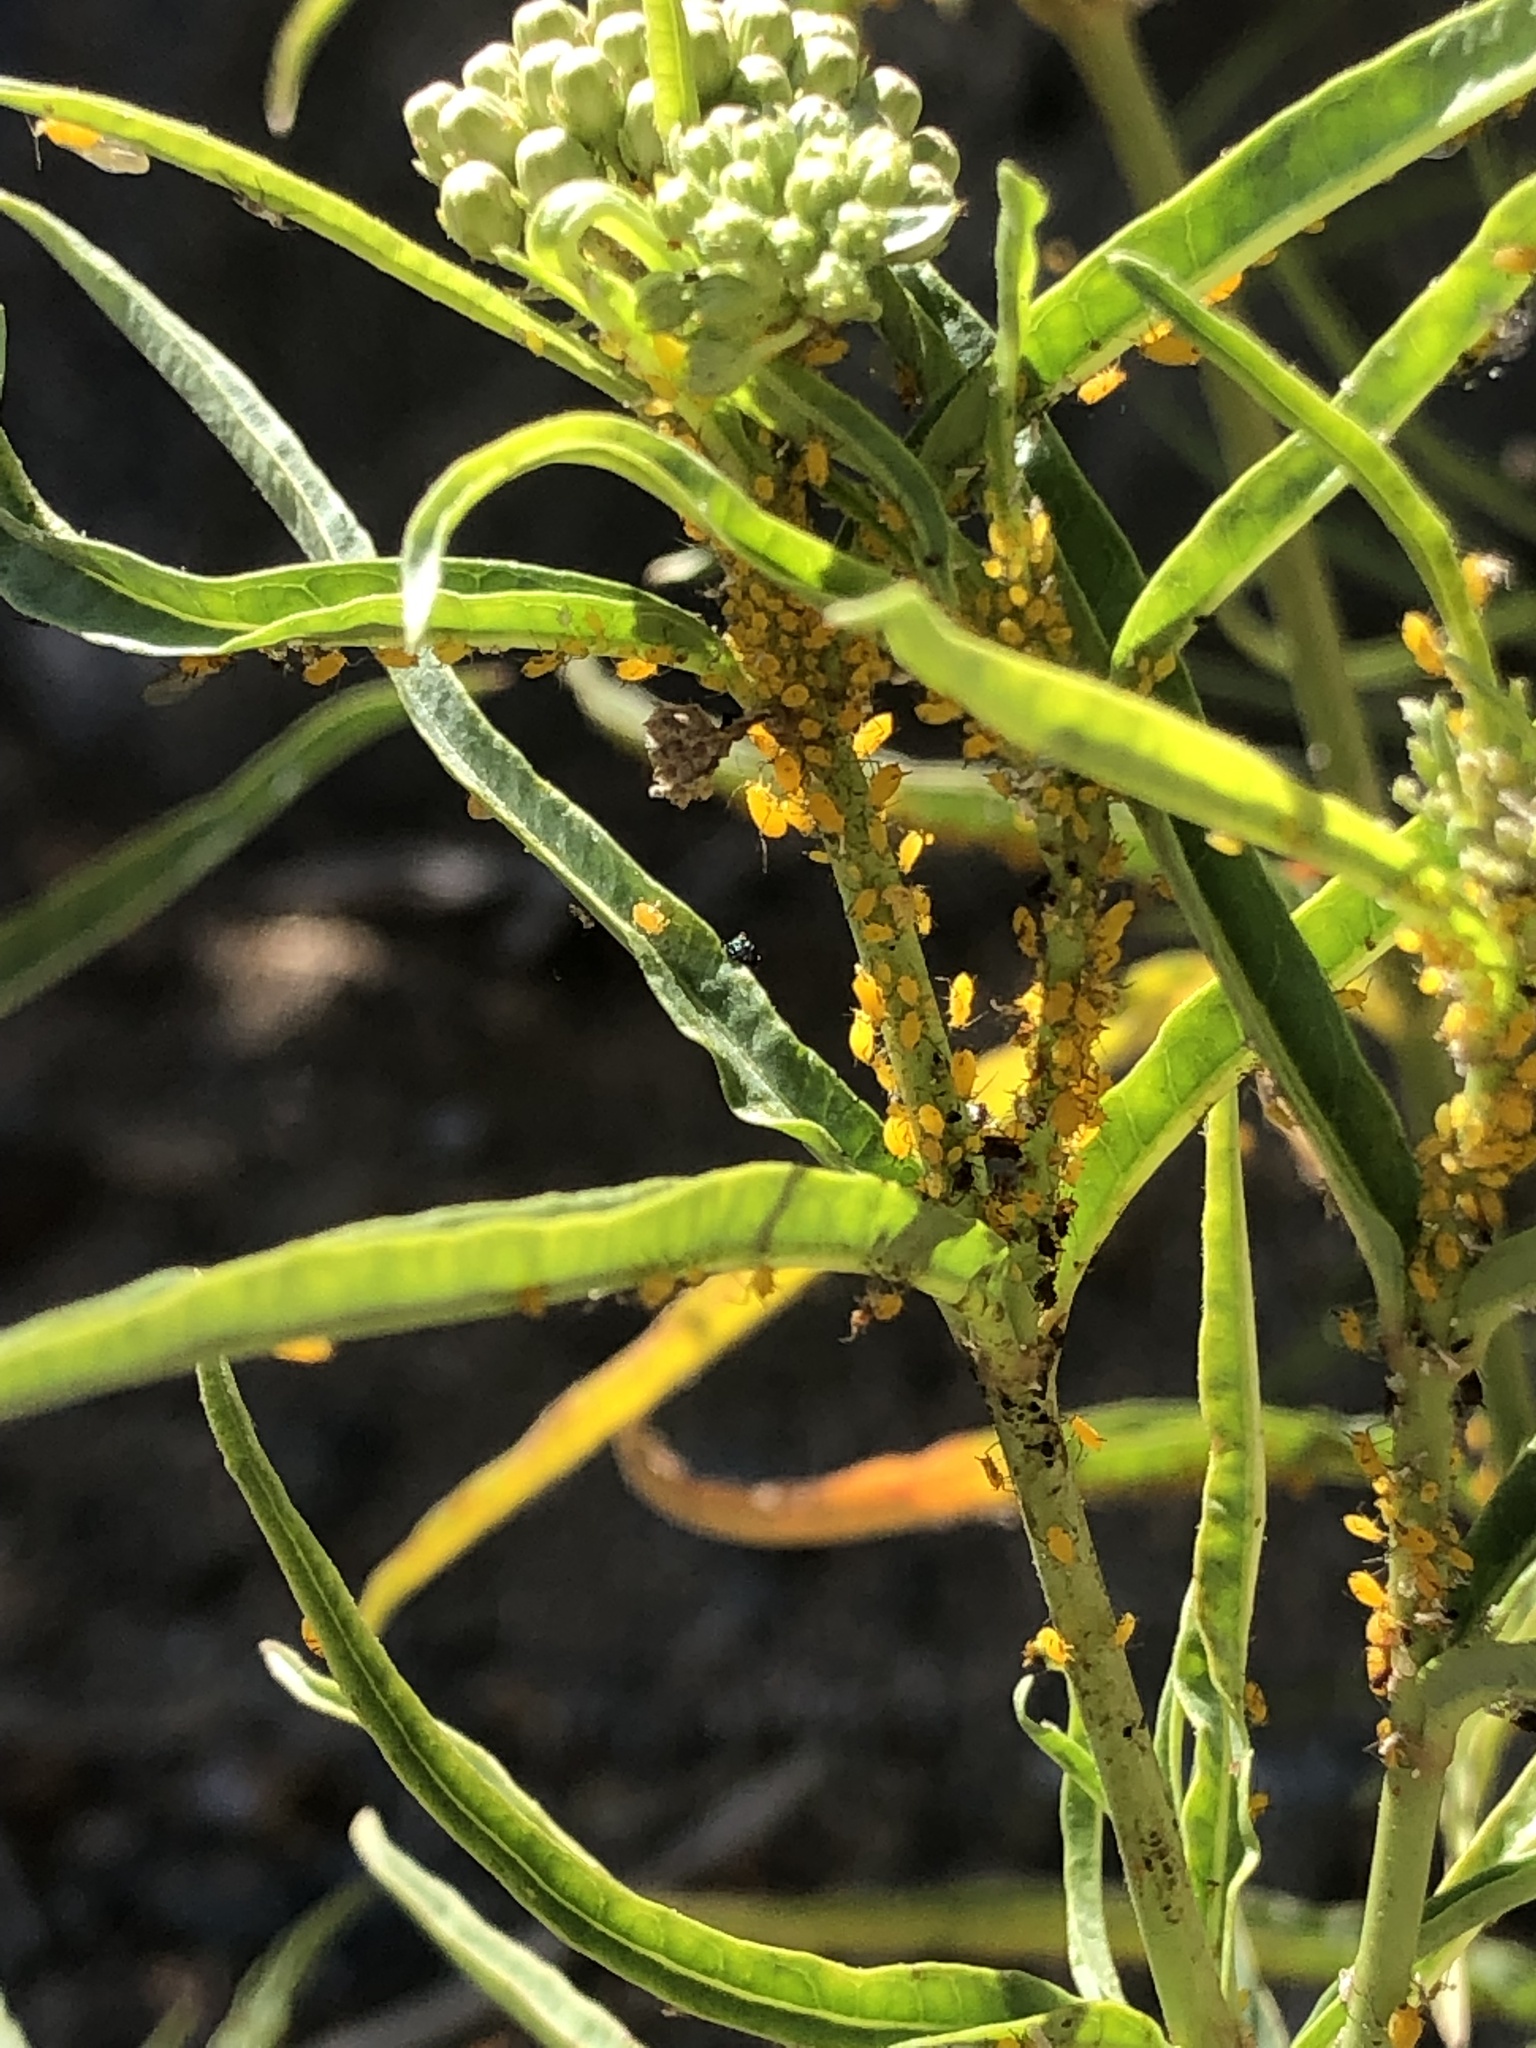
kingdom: Animalia
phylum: Arthropoda
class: Insecta
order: Hemiptera
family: Aphididae
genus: Aphis
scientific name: Aphis nerii
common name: Oleander aphid
